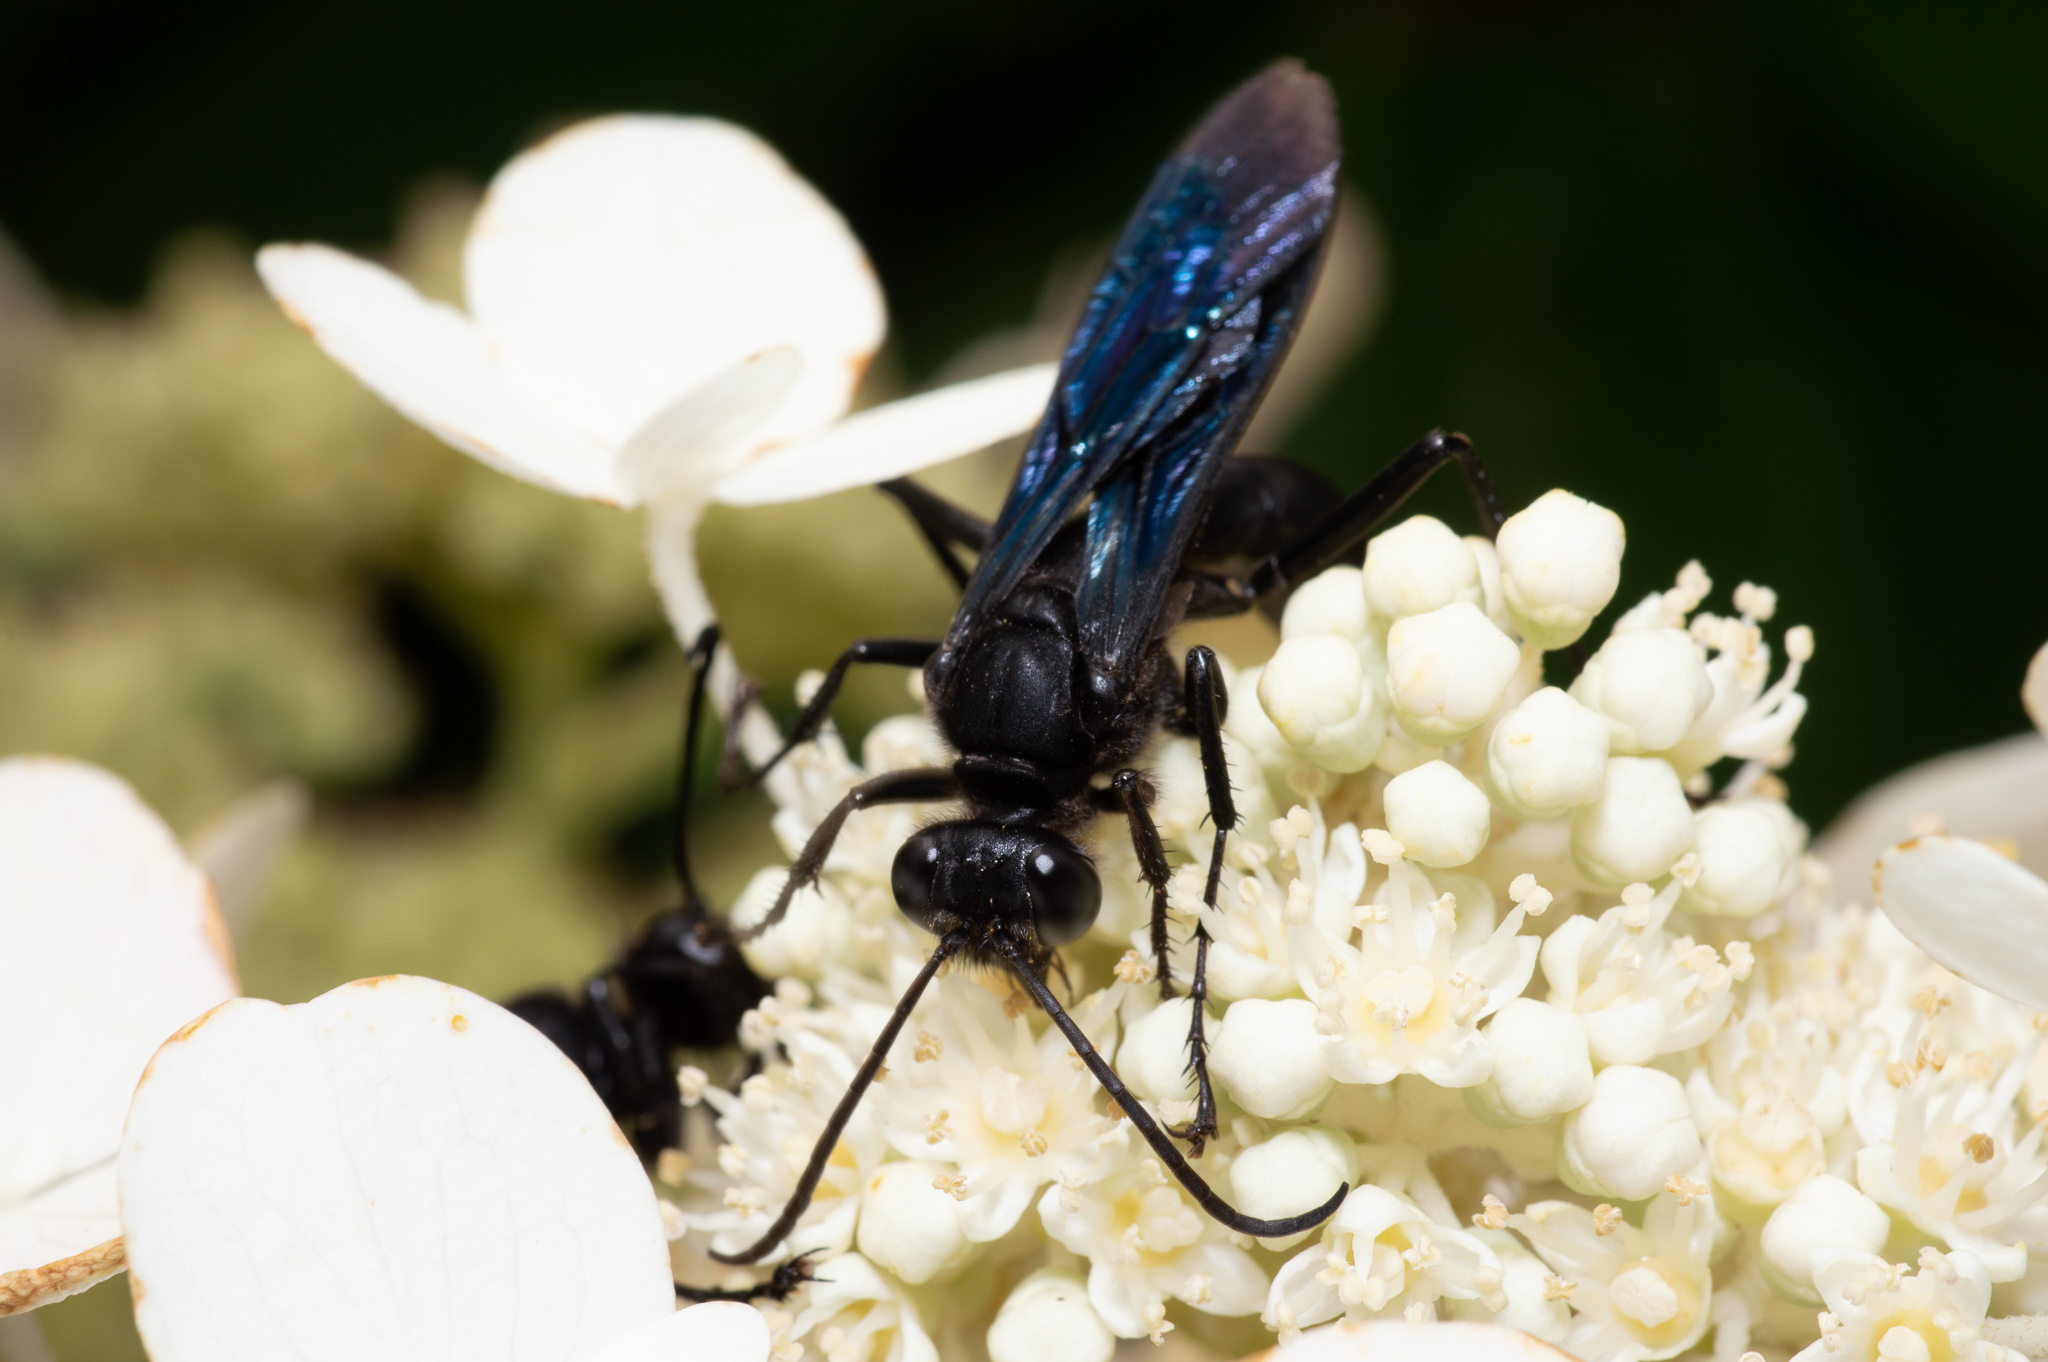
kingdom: Animalia
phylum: Arthropoda
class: Insecta
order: Hymenoptera
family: Sphecidae
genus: Sphex
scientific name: Sphex pensylvanicus
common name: Great black digger wasp
